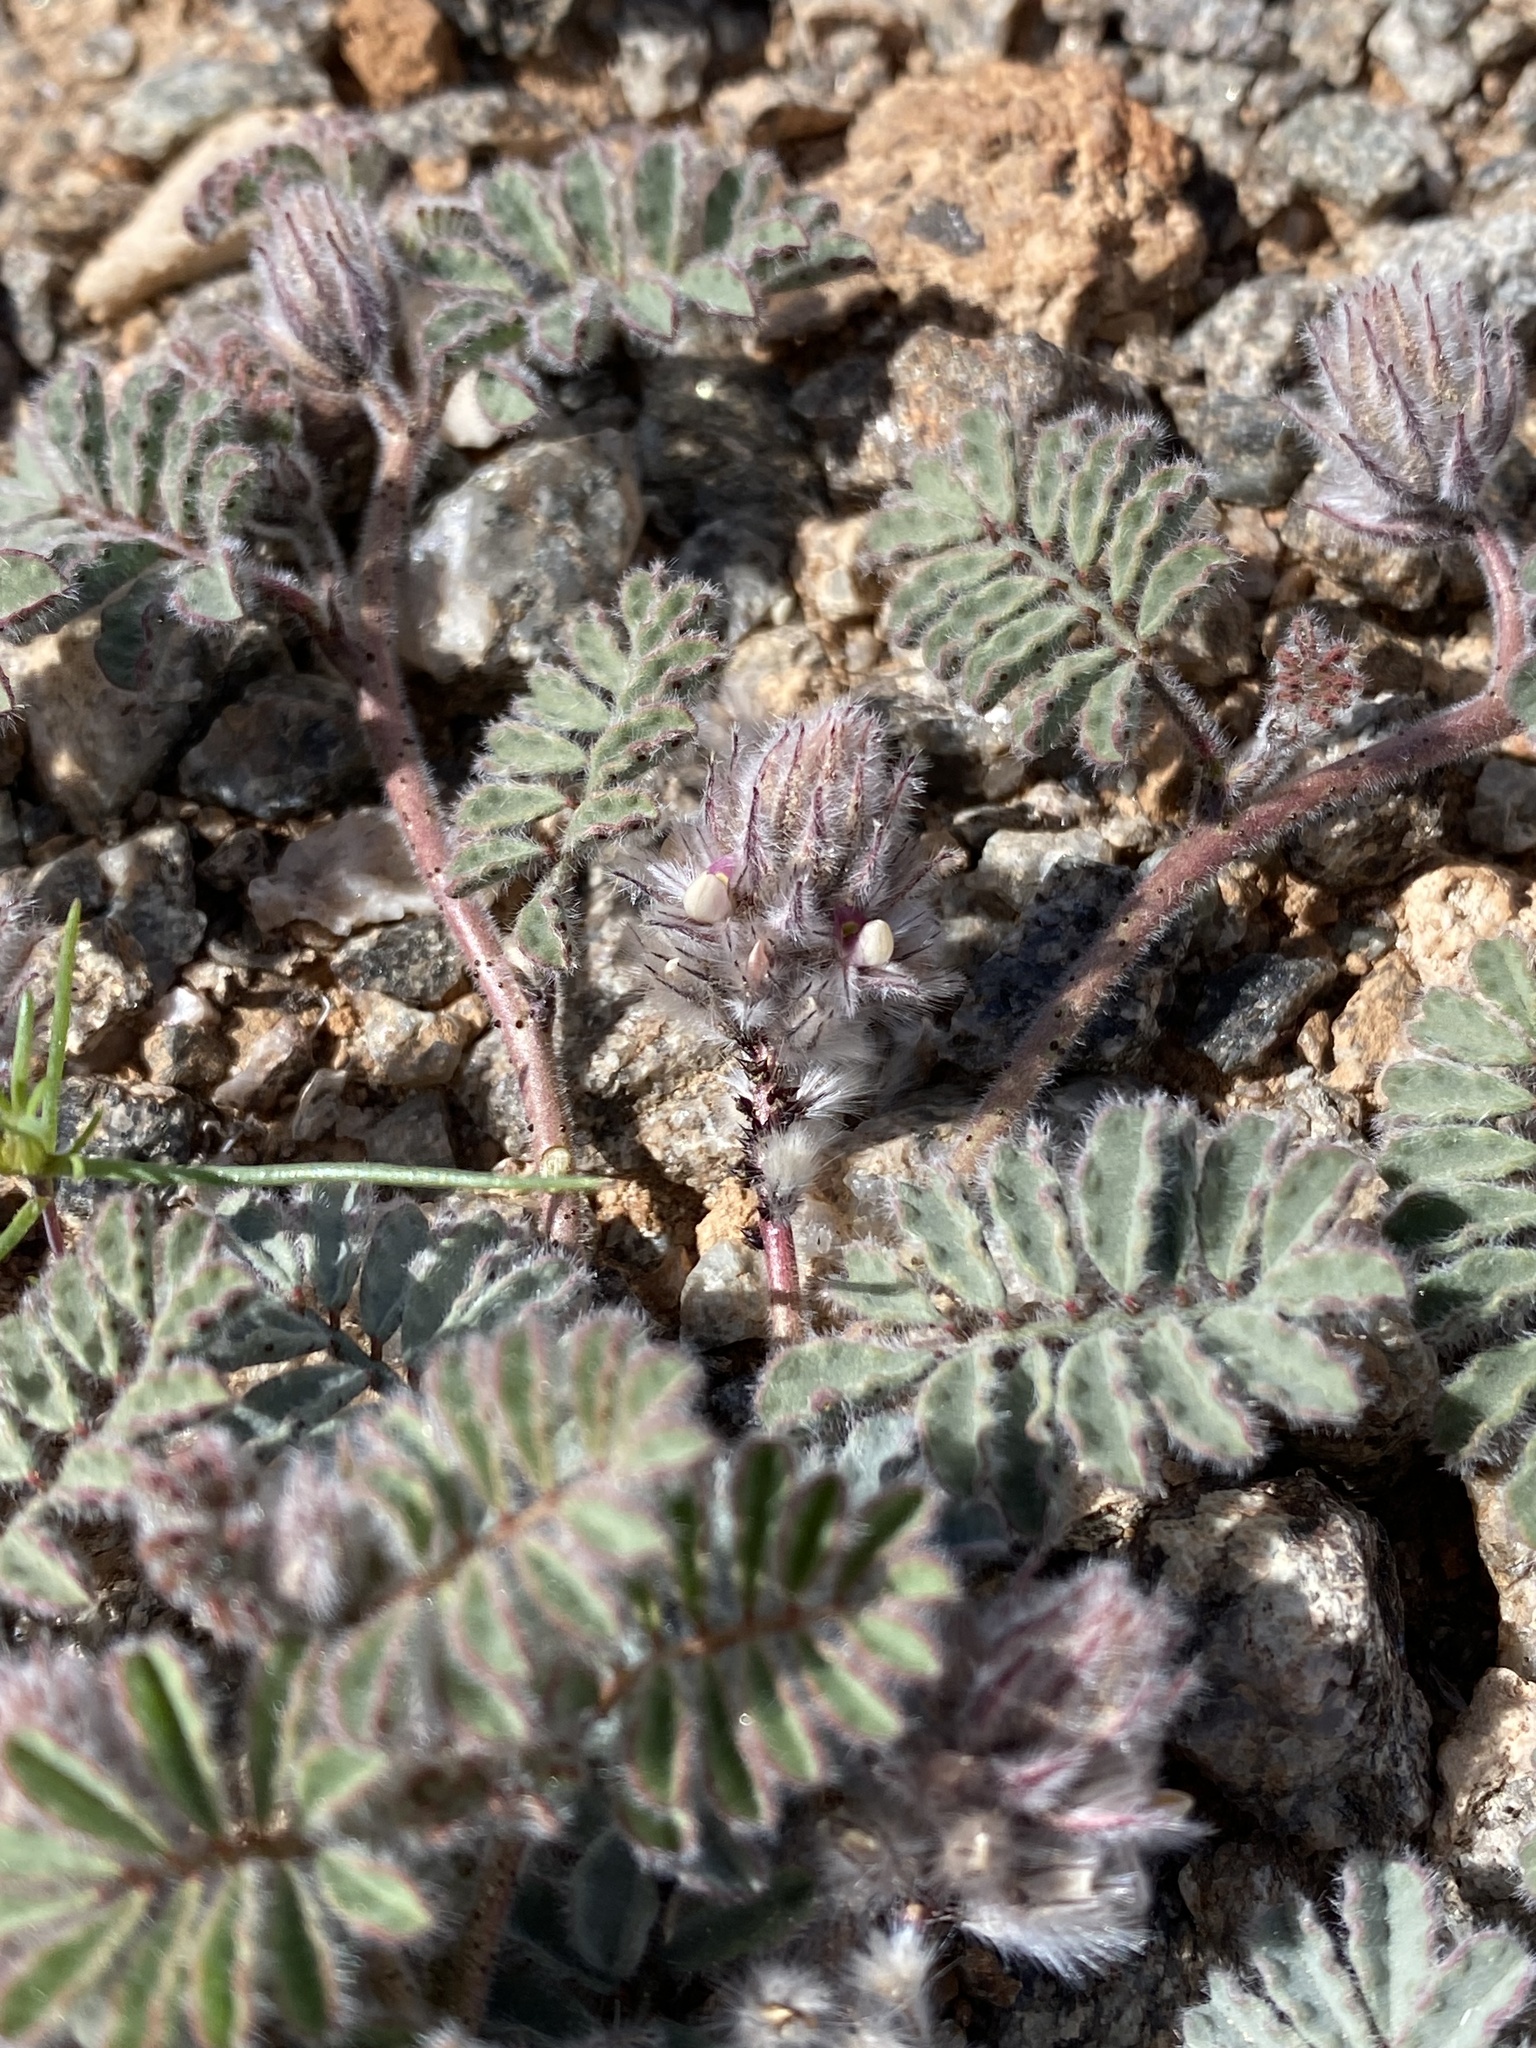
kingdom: Plantae
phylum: Tracheophyta
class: Magnoliopsida
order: Fabales
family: Fabaceae
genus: Dalea
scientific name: Dalea mollissima
